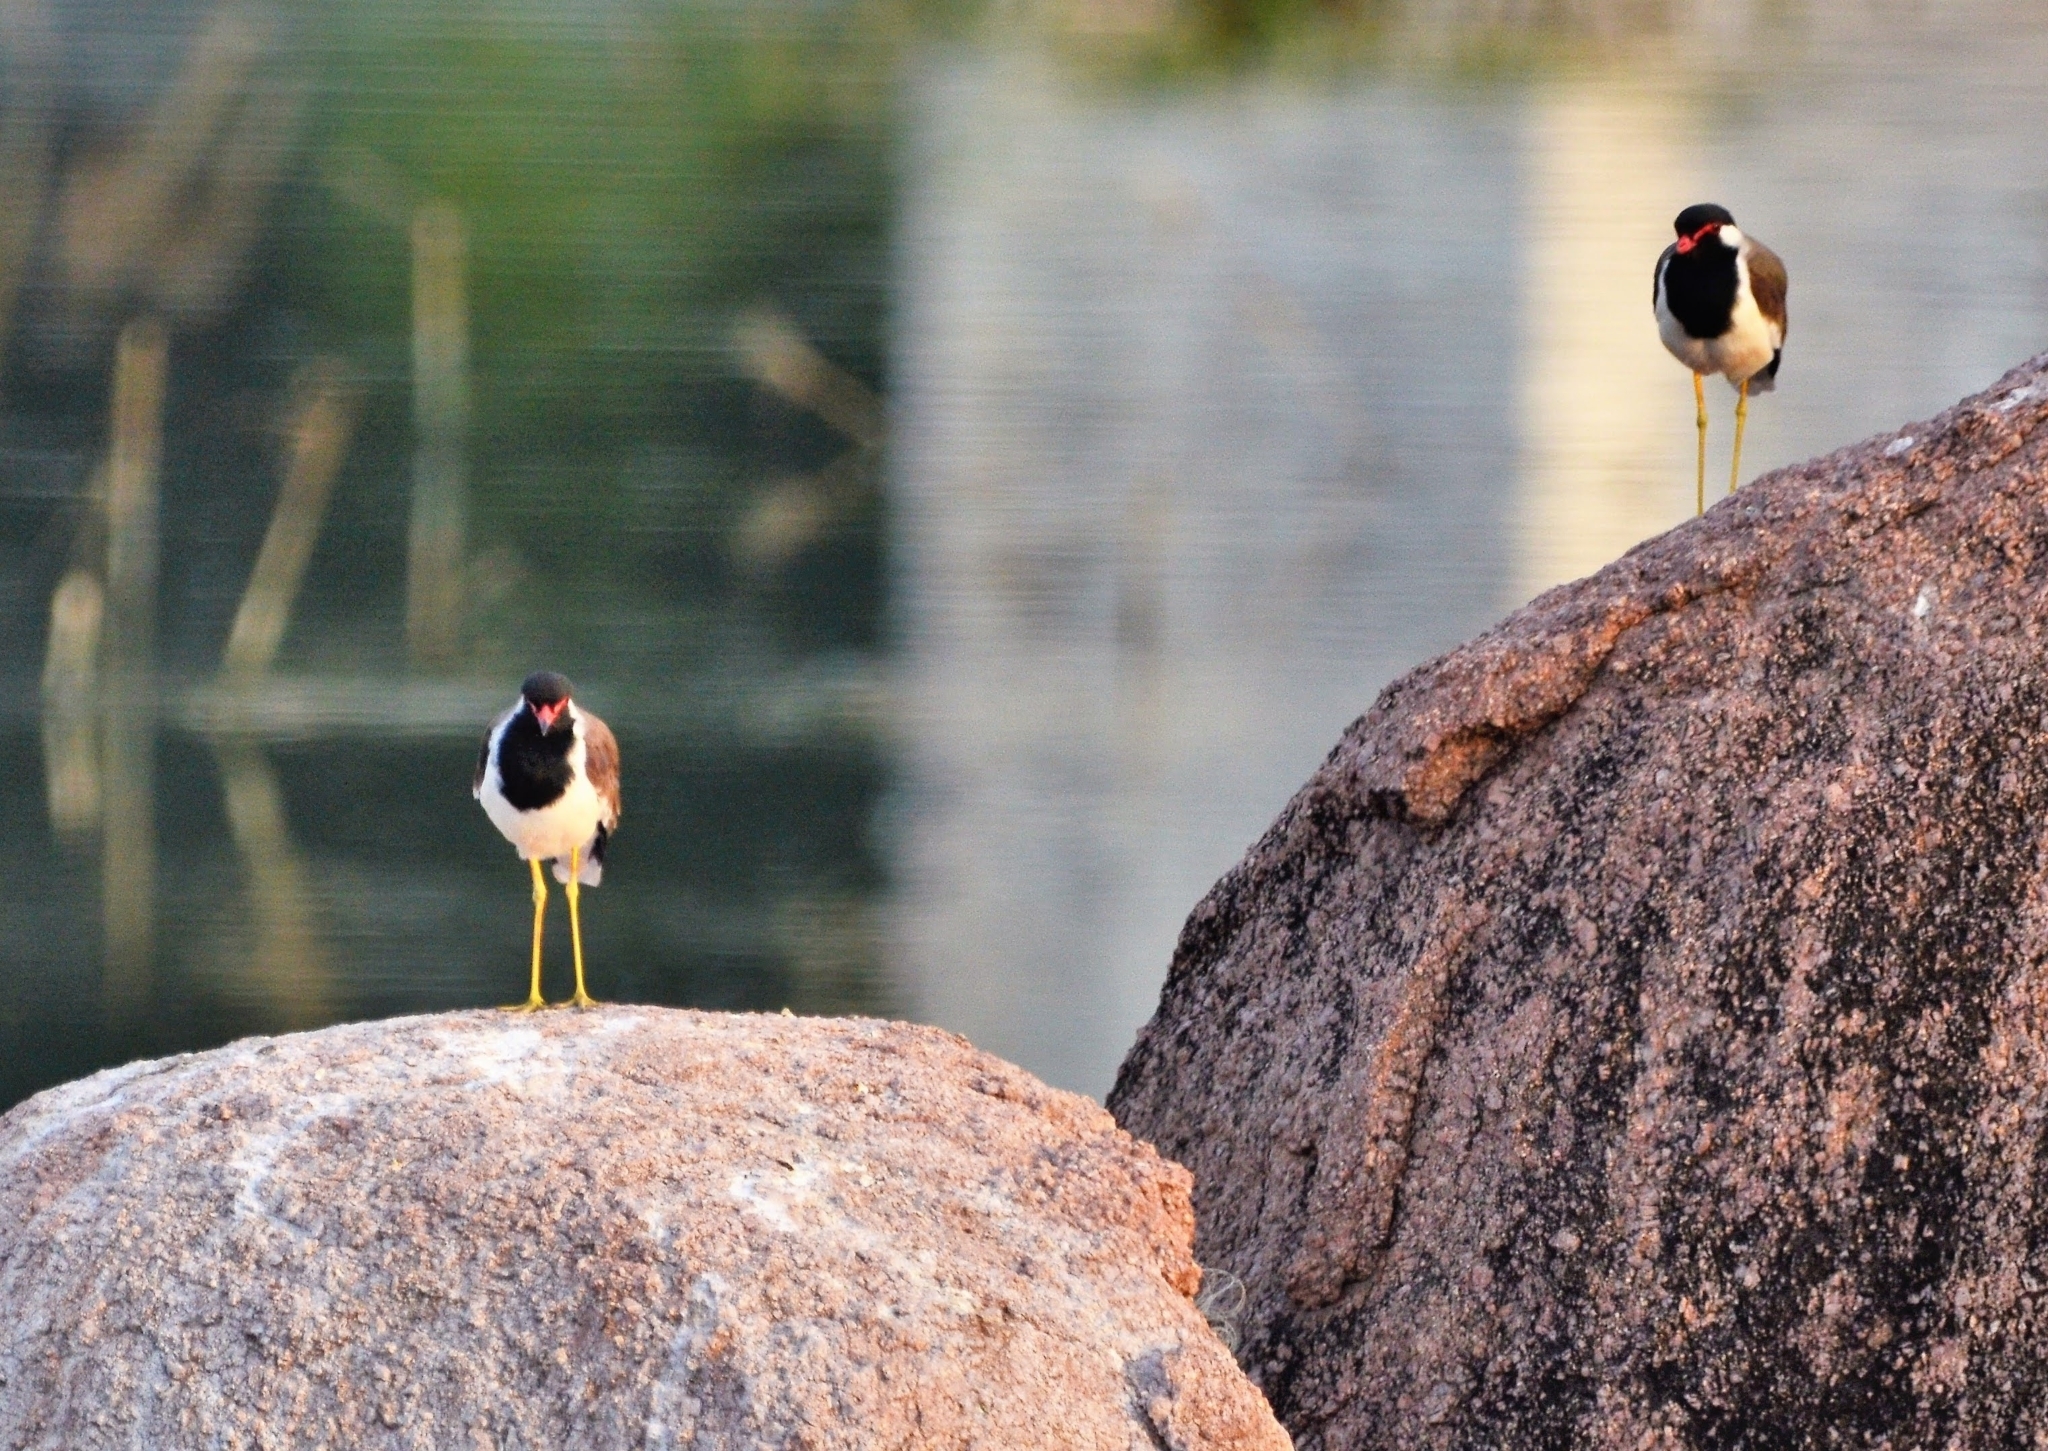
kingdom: Animalia
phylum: Chordata
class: Aves
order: Charadriiformes
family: Charadriidae
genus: Vanellus
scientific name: Vanellus indicus
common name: Red-wattled lapwing
